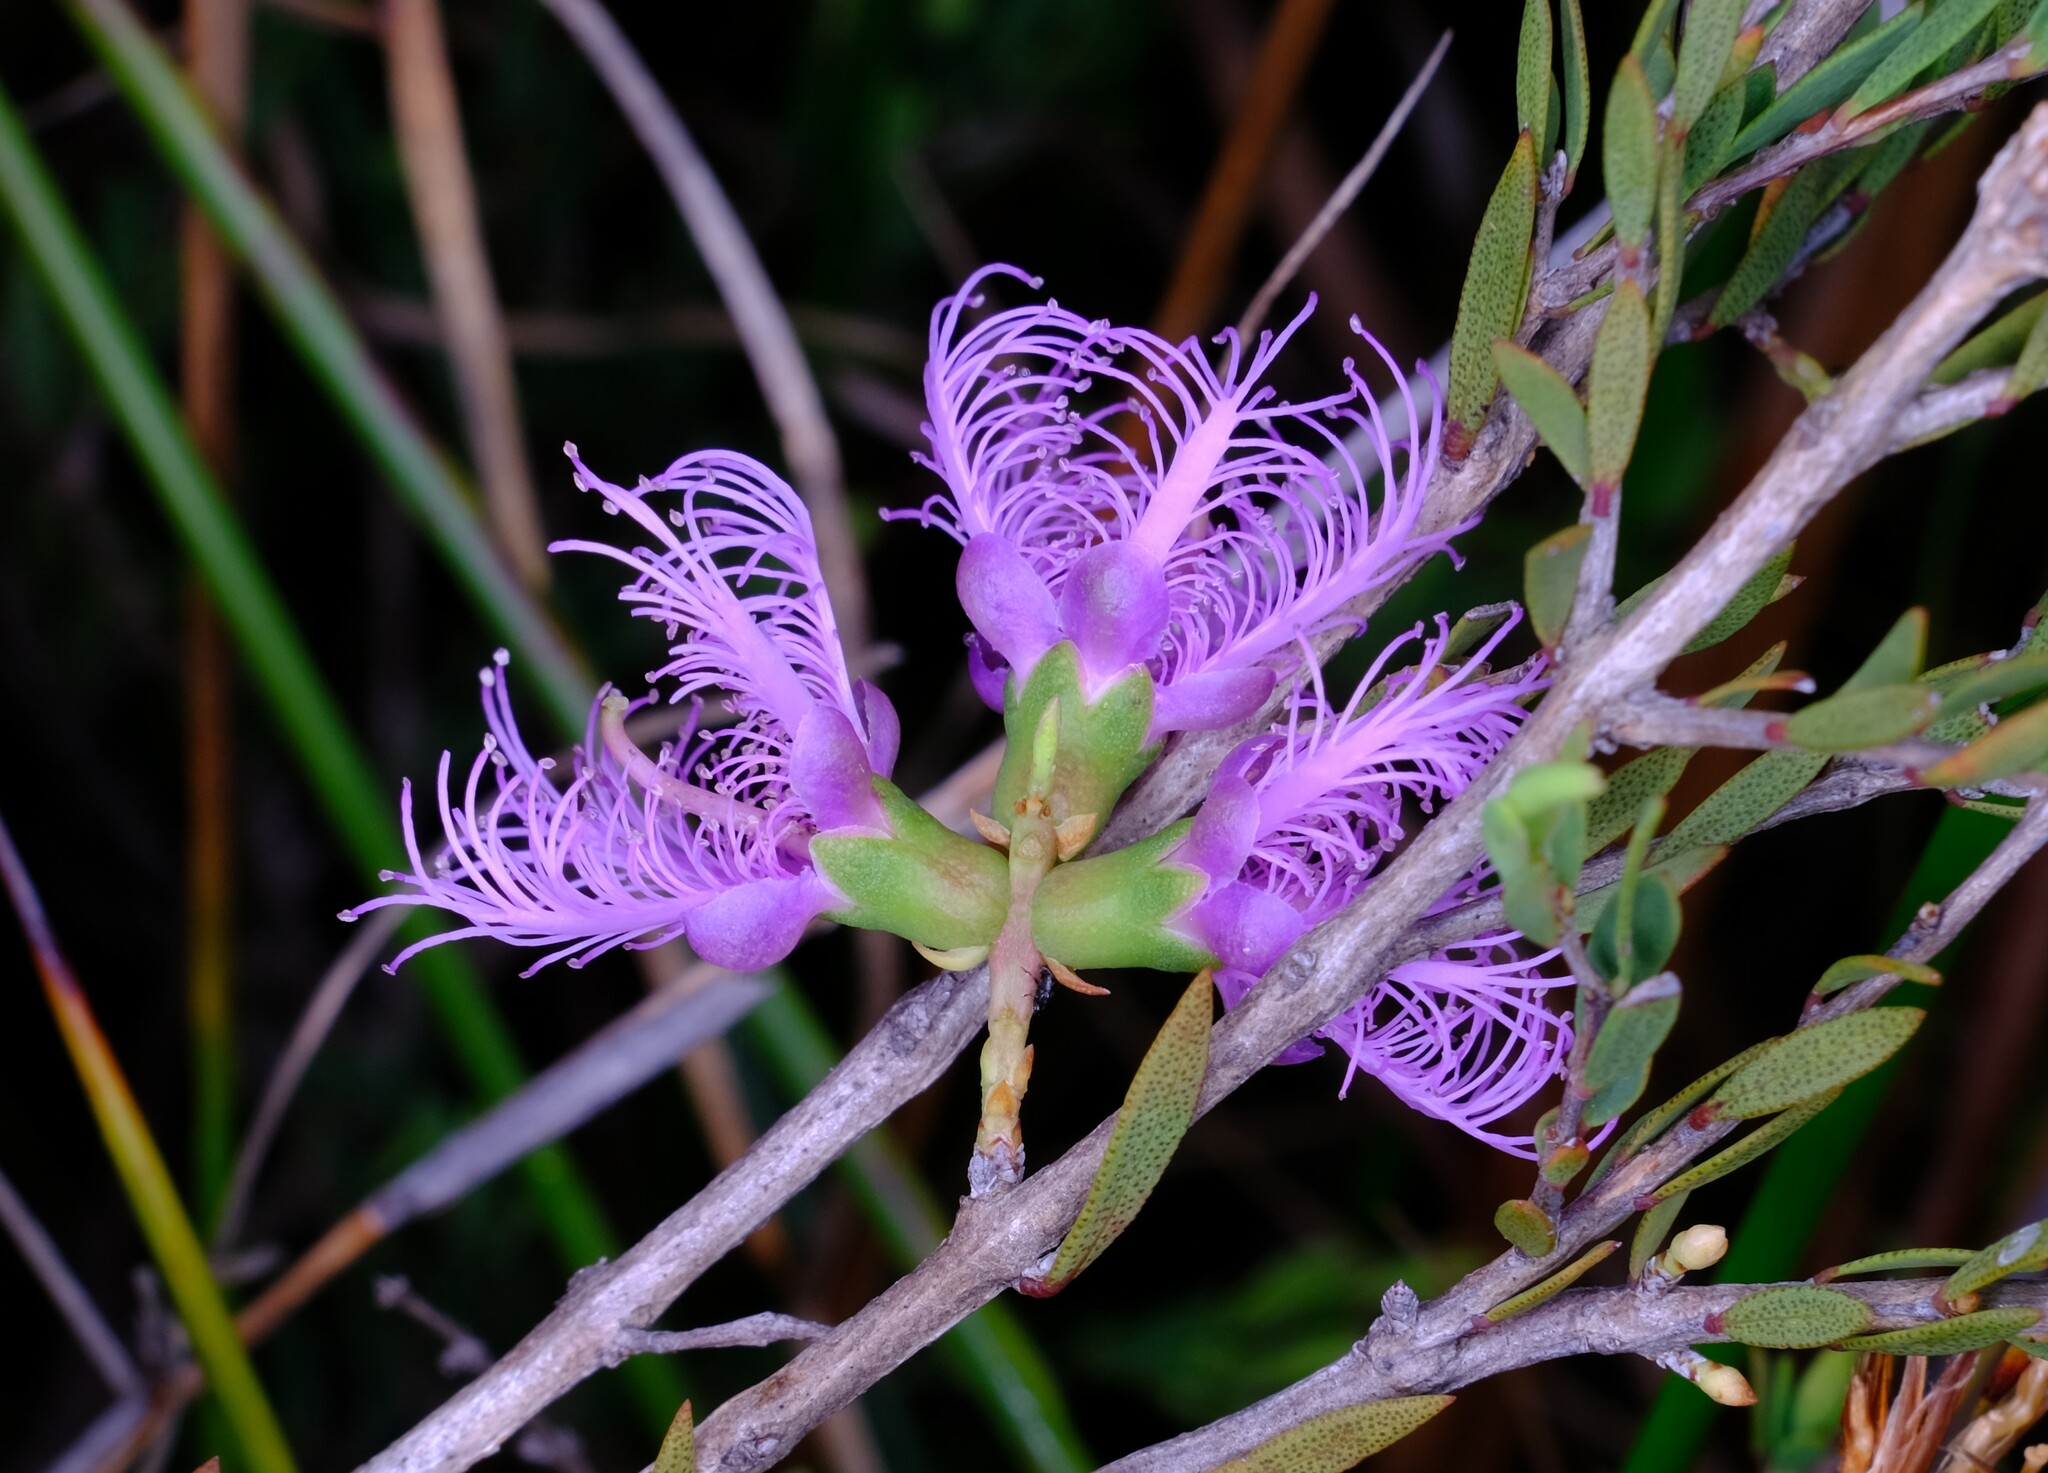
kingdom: Plantae
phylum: Tracheophyta
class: Magnoliopsida
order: Myrtales
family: Myrtaceae
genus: Melaleuca
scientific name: Melaleuca thymifolia
